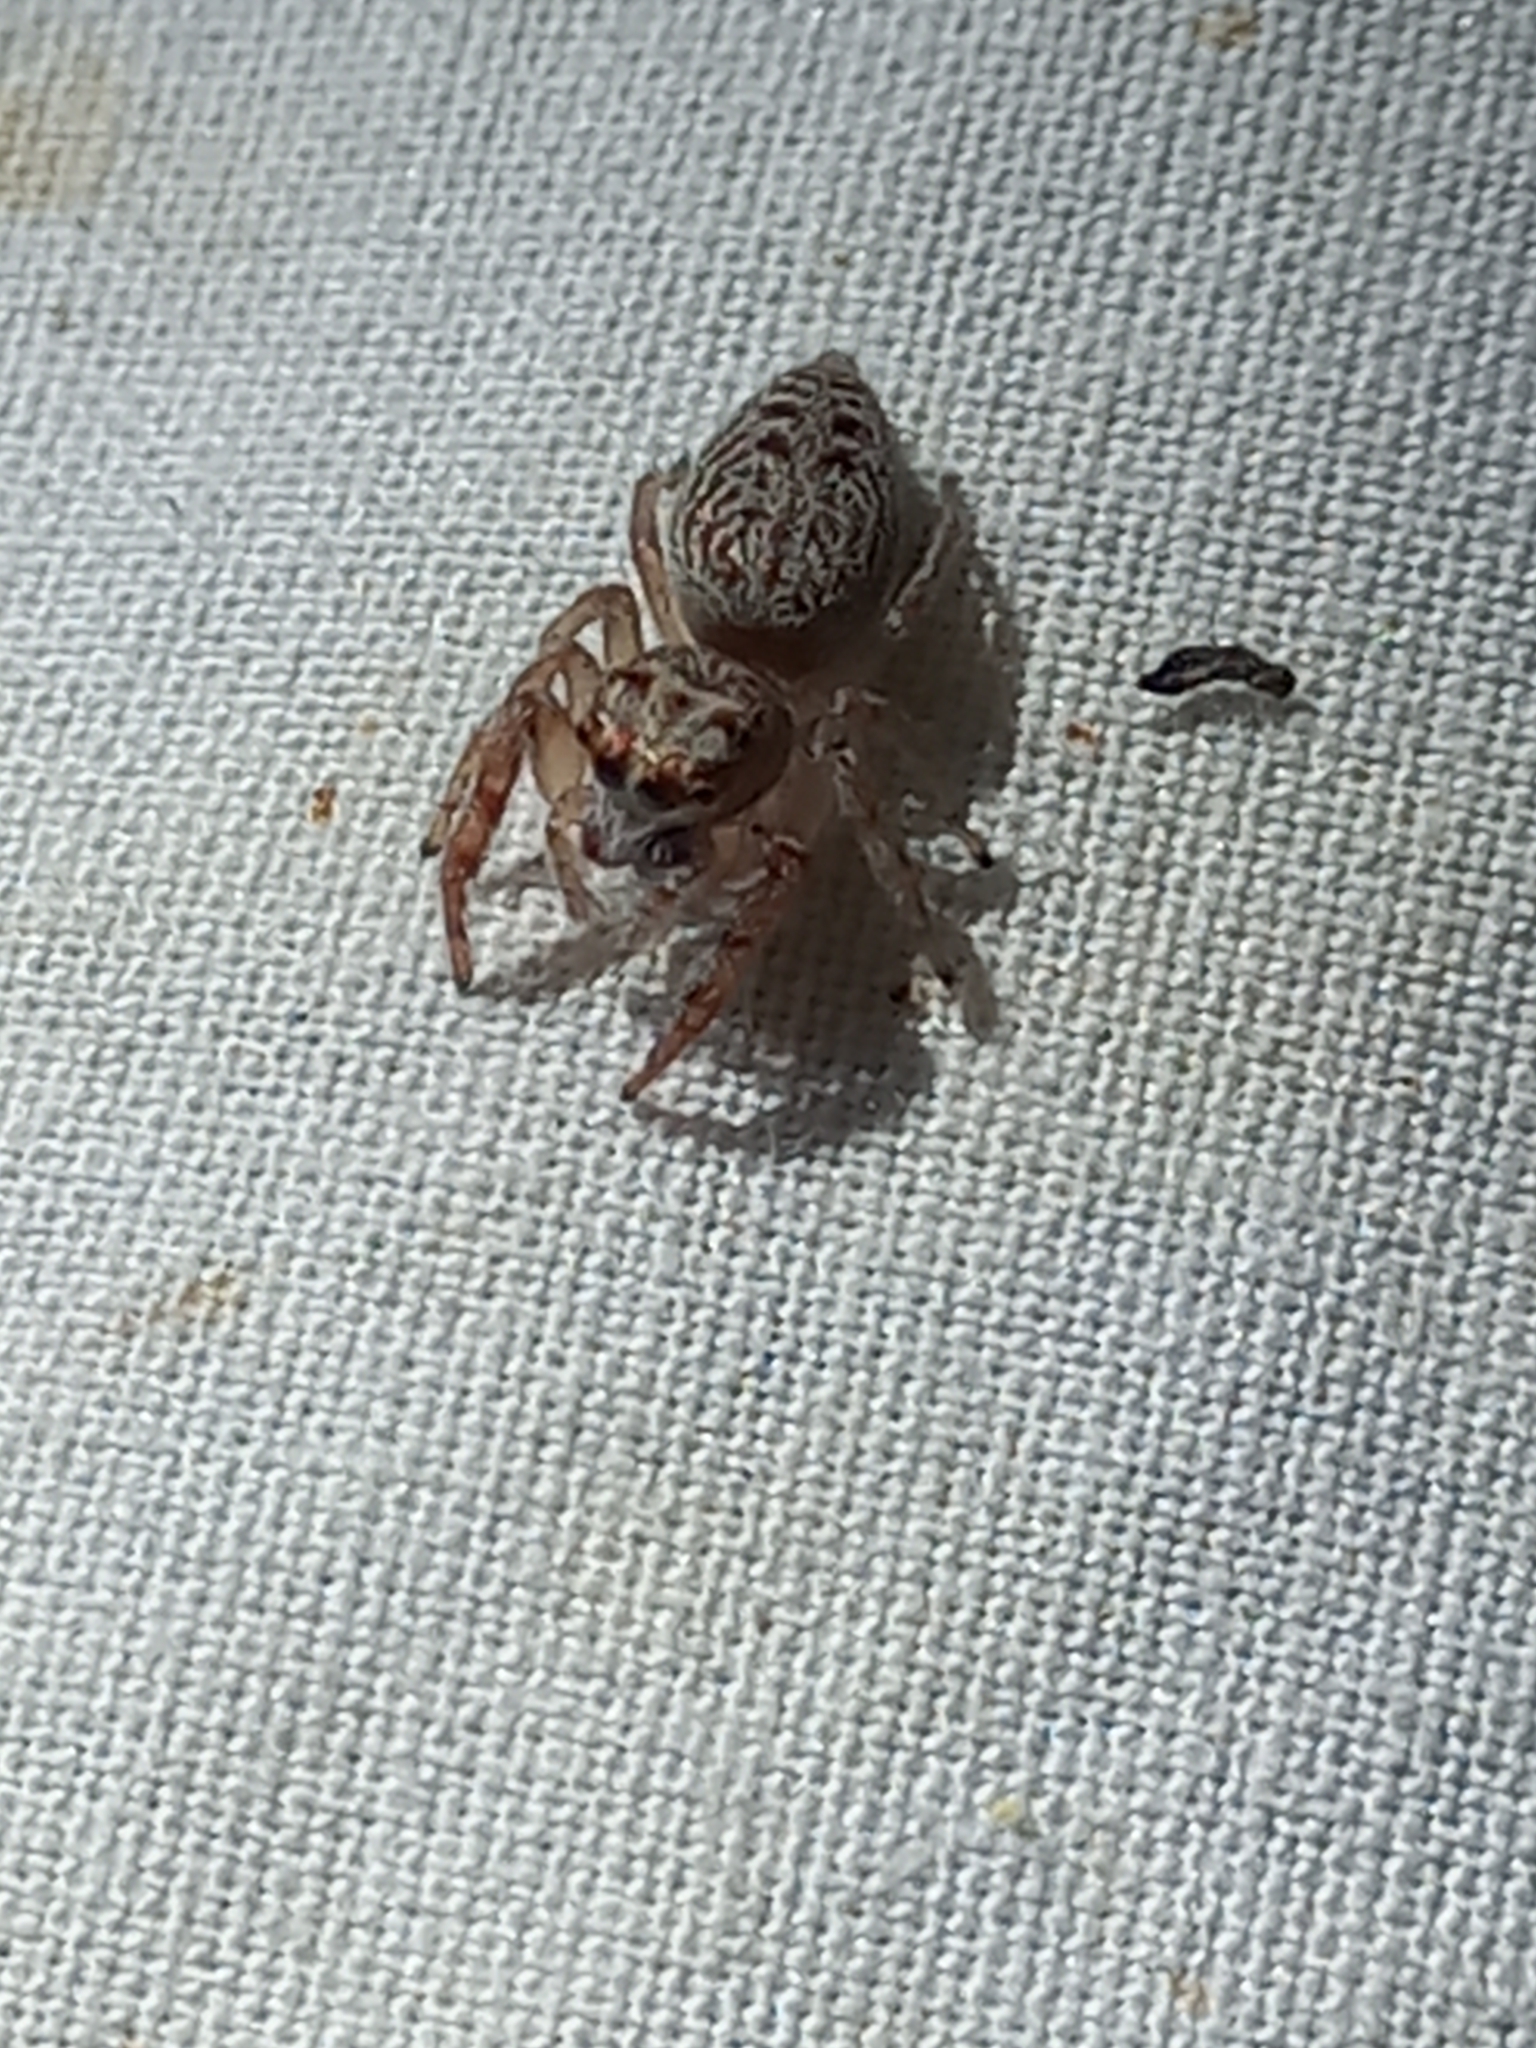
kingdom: Animalia
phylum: Arthropoda
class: Arachnida
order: Araneae
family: Salticidae
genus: Opisthoncus
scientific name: Opisthoncus polyphemus
